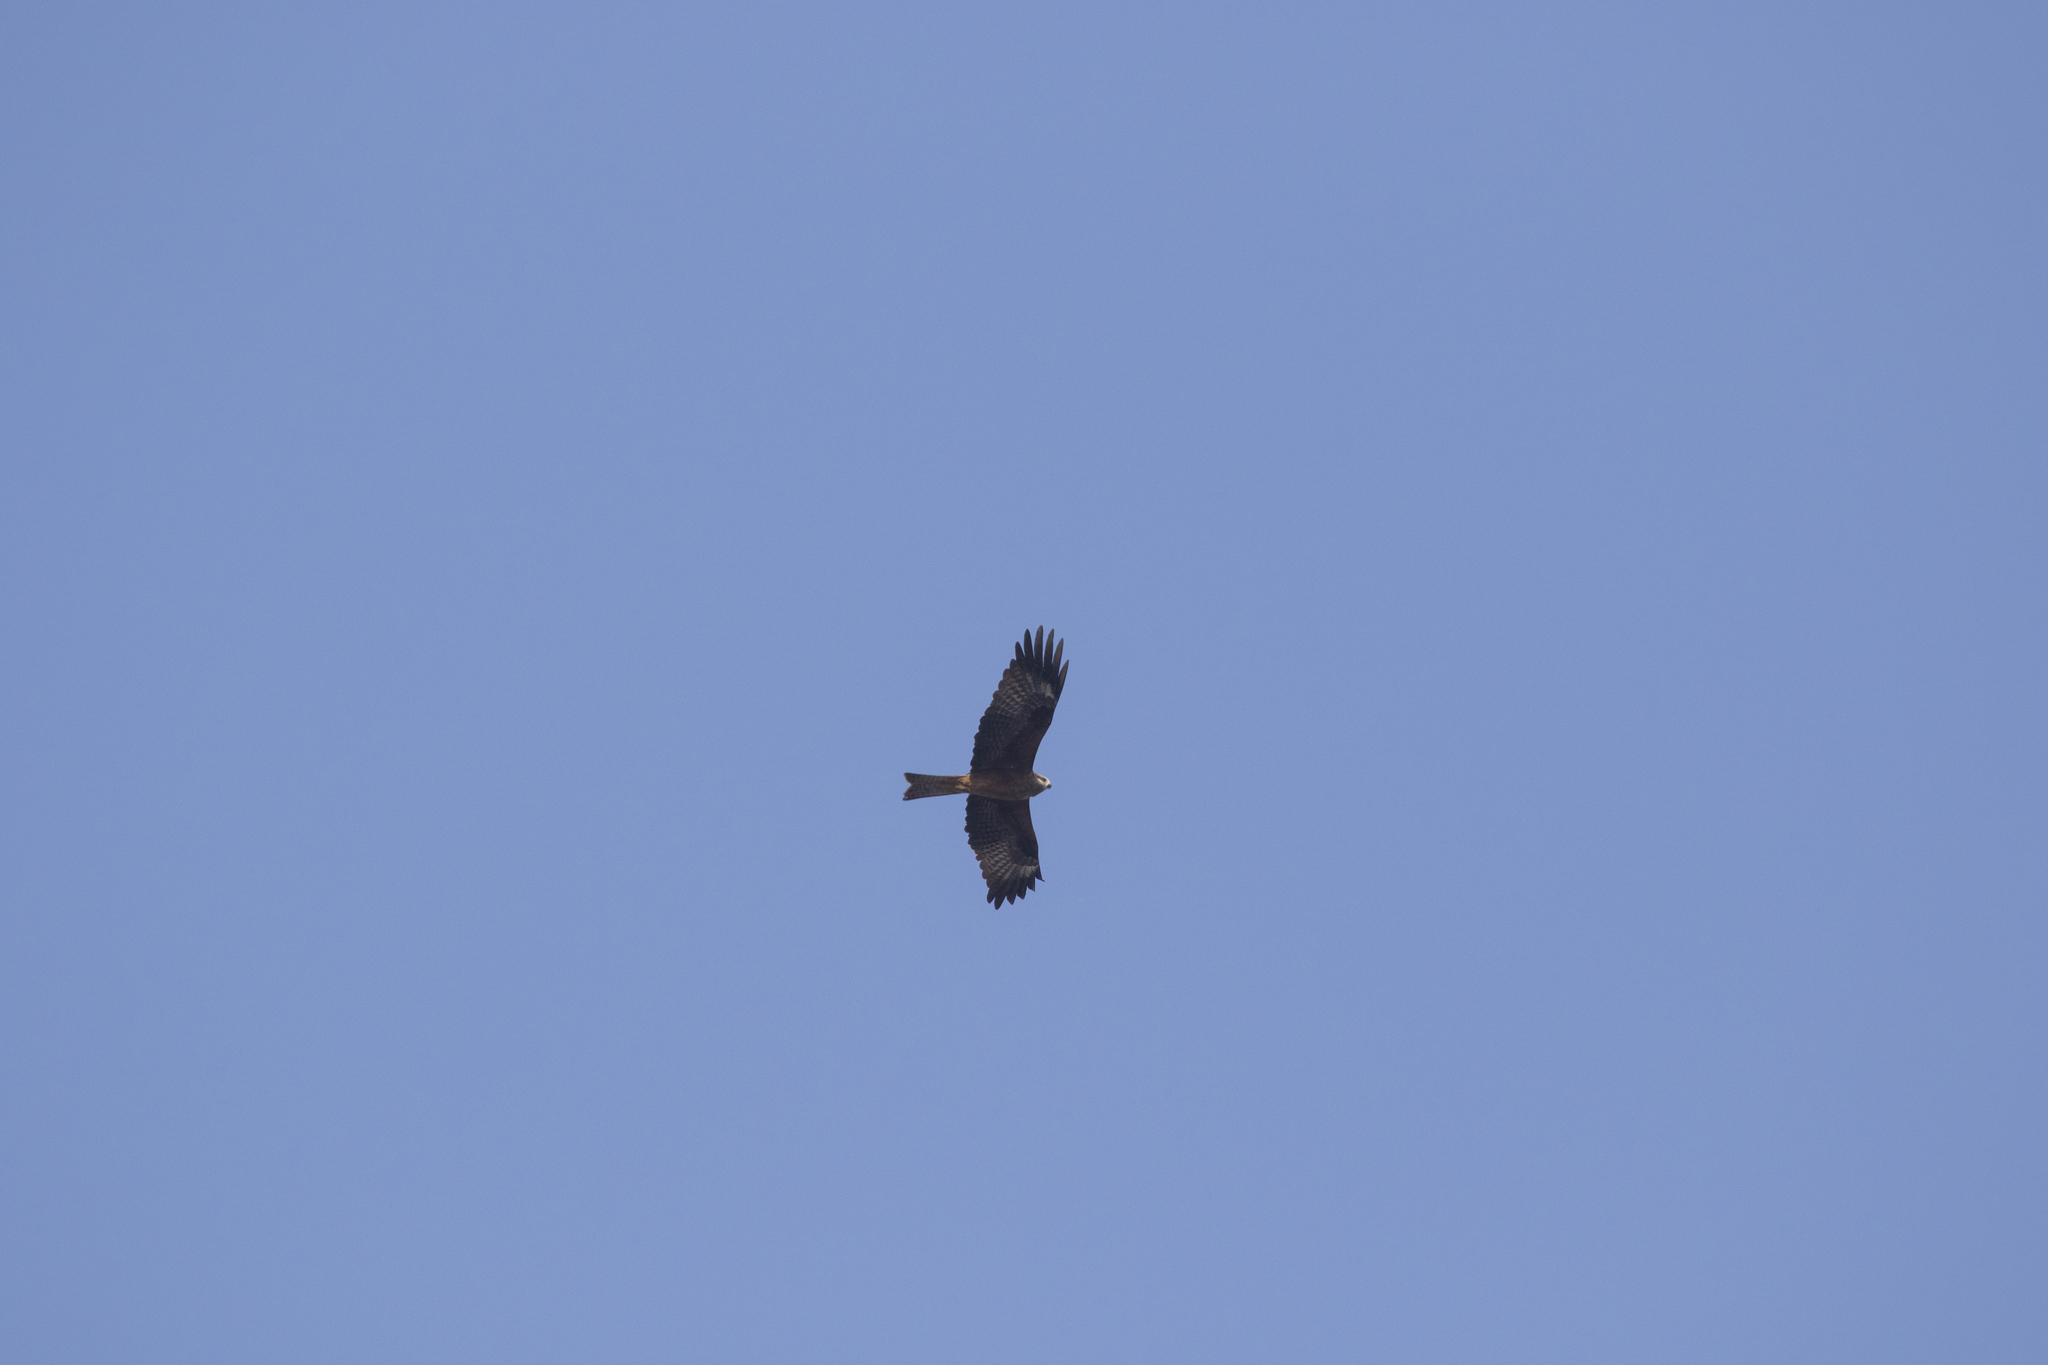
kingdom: Animalia
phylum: Chordata
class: Aves
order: Accipitriformes
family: Accipitridae
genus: Milvus
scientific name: Milvus migrans
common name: Black kite
